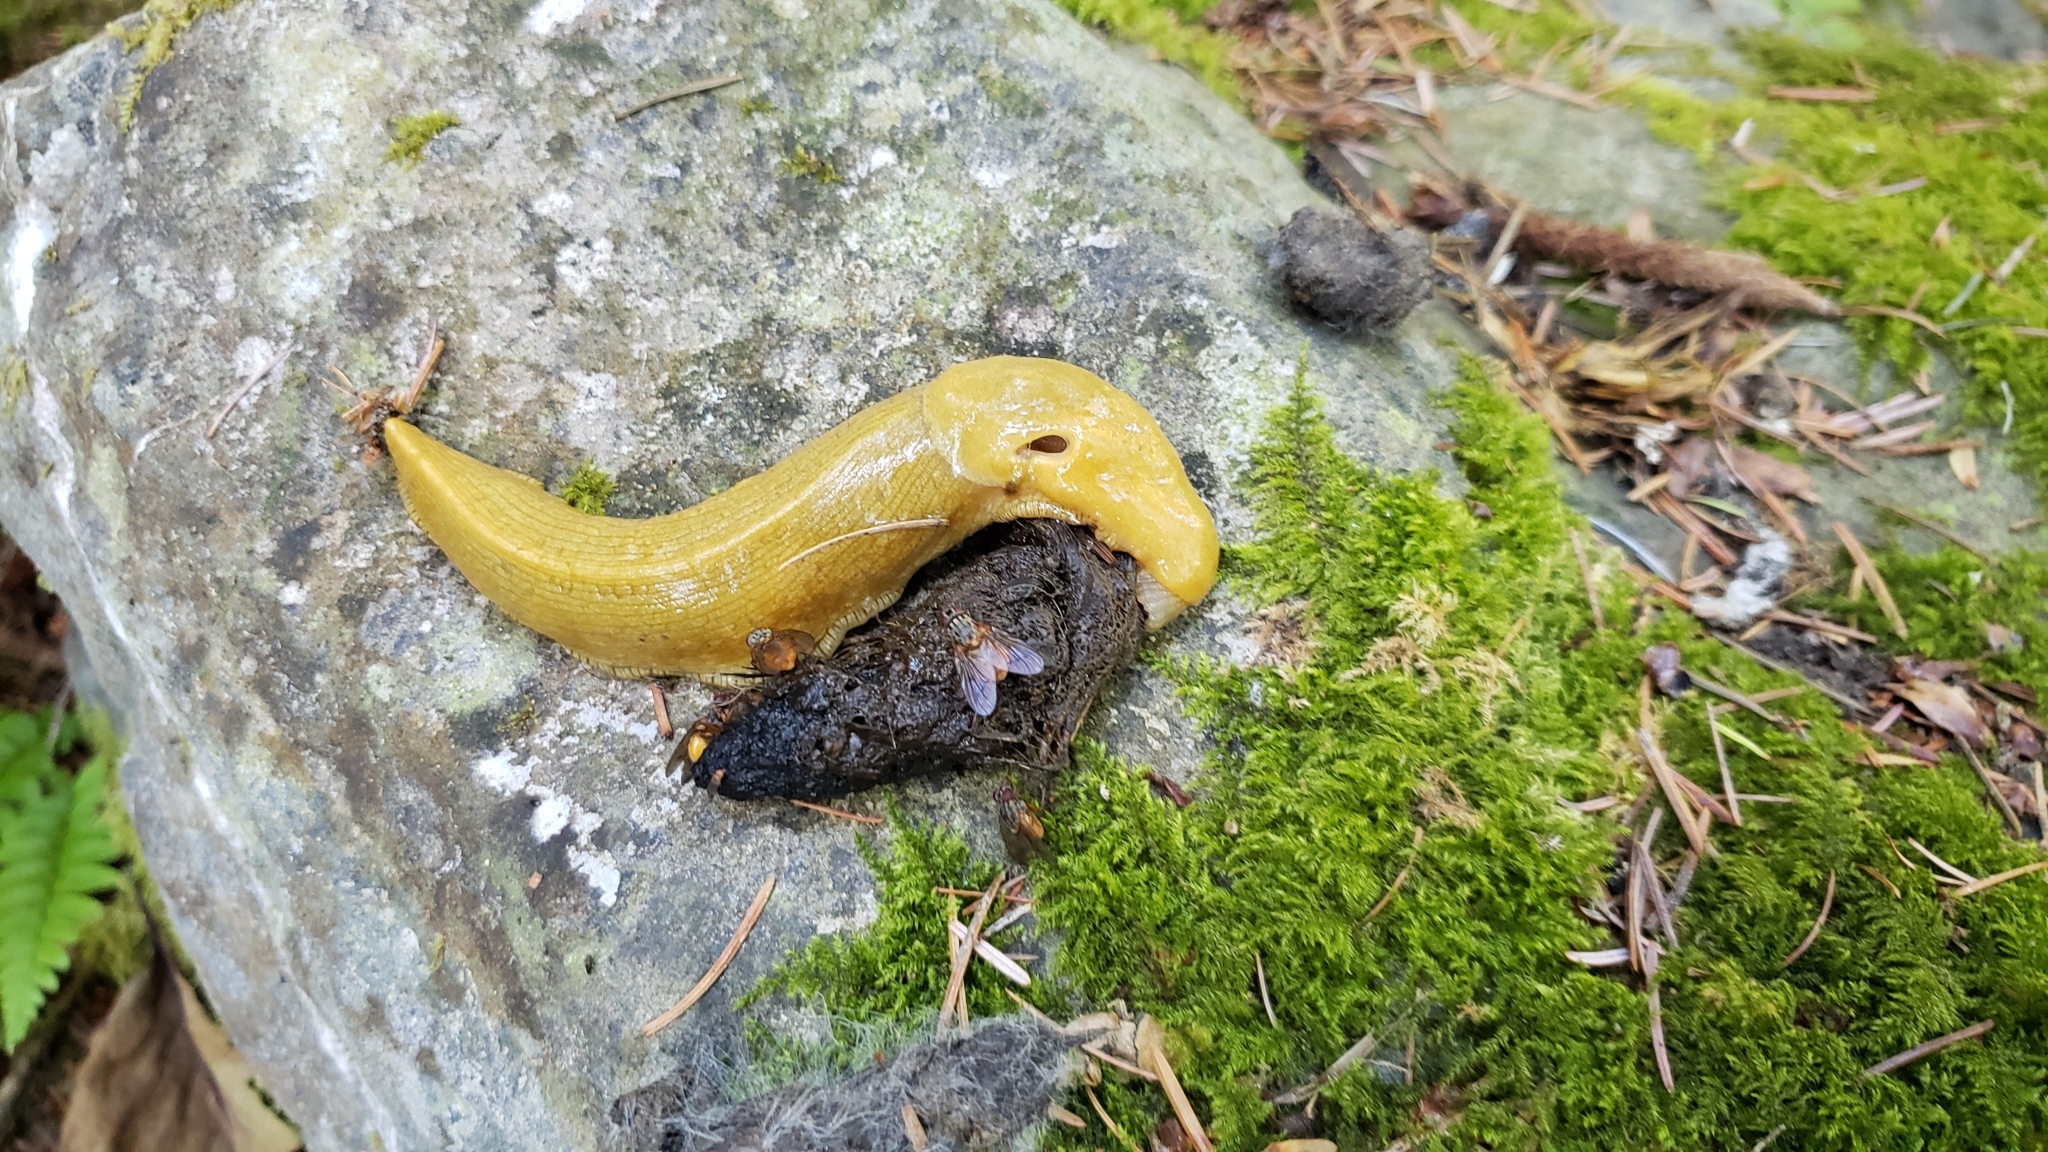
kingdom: Animalia
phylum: Mollusca
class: Gastropoda
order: Stylommatophora
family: Ariolimacidae
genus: Ariolimax
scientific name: Ariolimax columbianus
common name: Pacific banana slug
